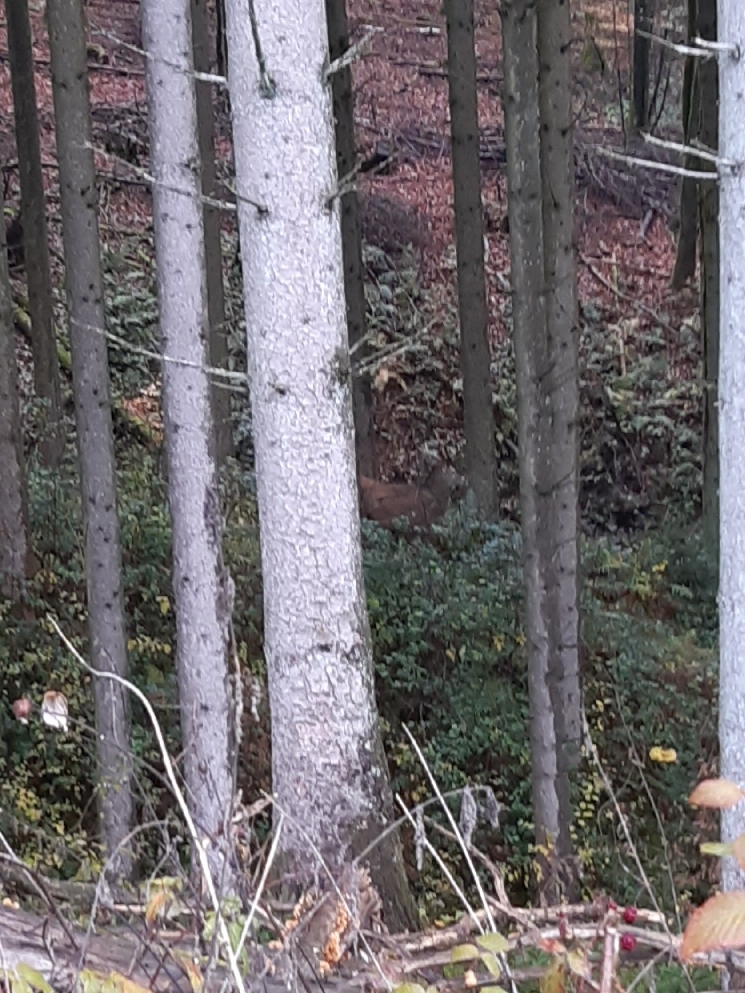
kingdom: Animalia
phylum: Chordata
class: Mammalia
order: Artiodactyla
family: Cervidae
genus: Cervus
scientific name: Cervus elaphus
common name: Red deer
